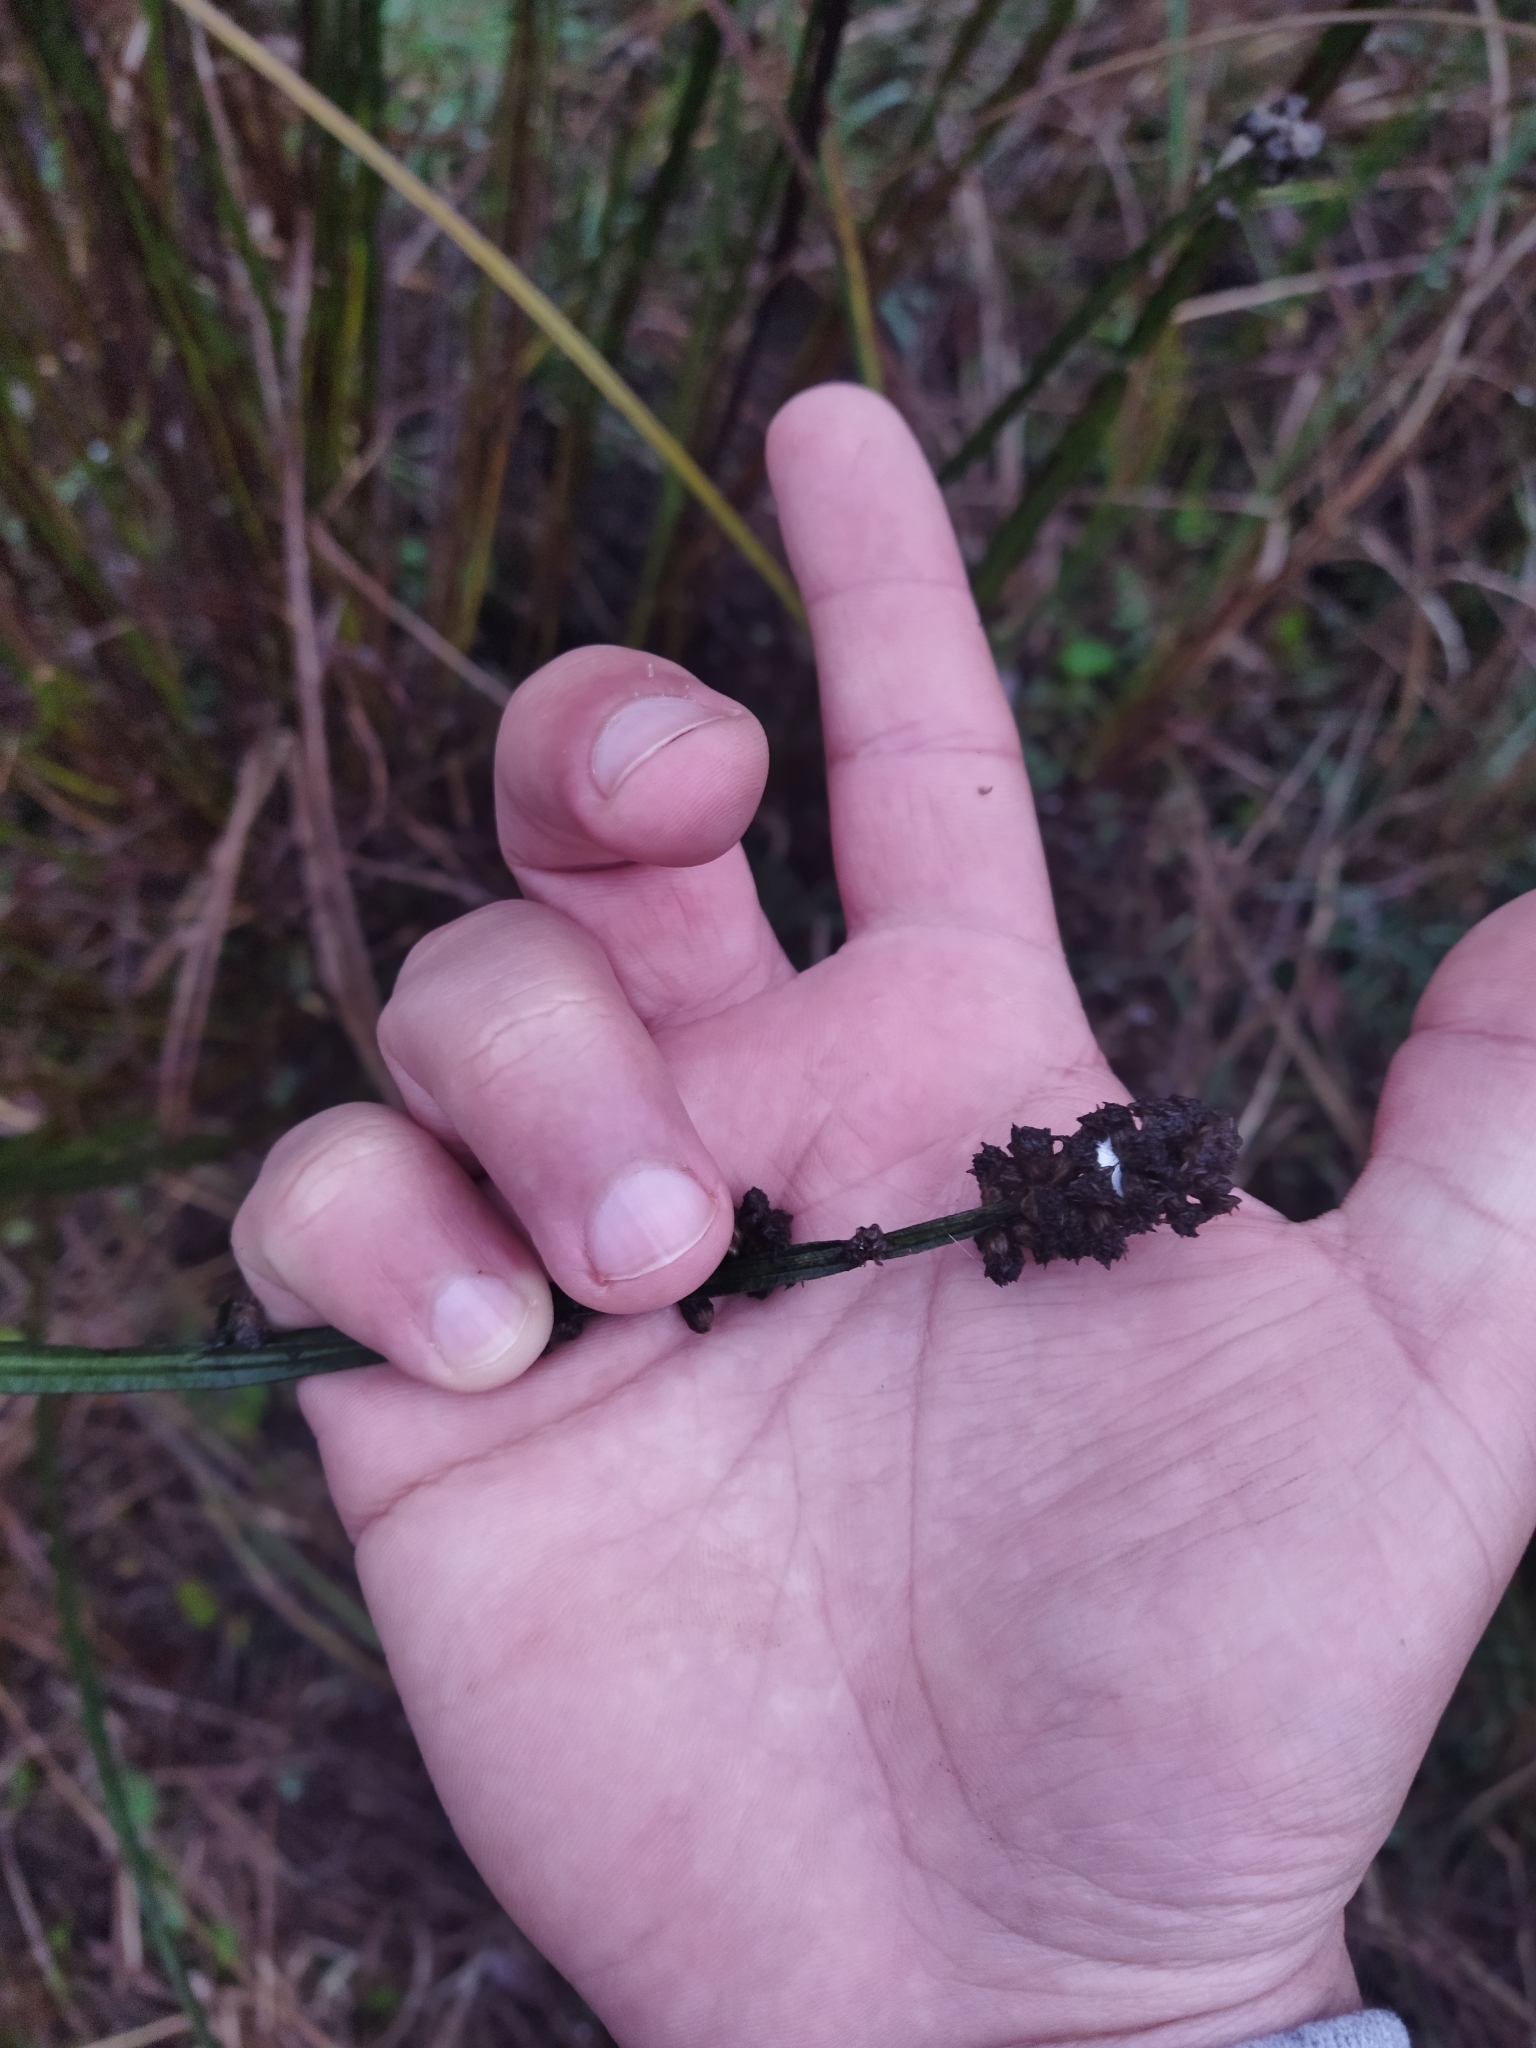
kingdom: Plantae
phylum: Tracheophyta
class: Magnoliopsida
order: Asterales
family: Asteraceae
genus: Baccharis
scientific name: Baccharis sagittalis
